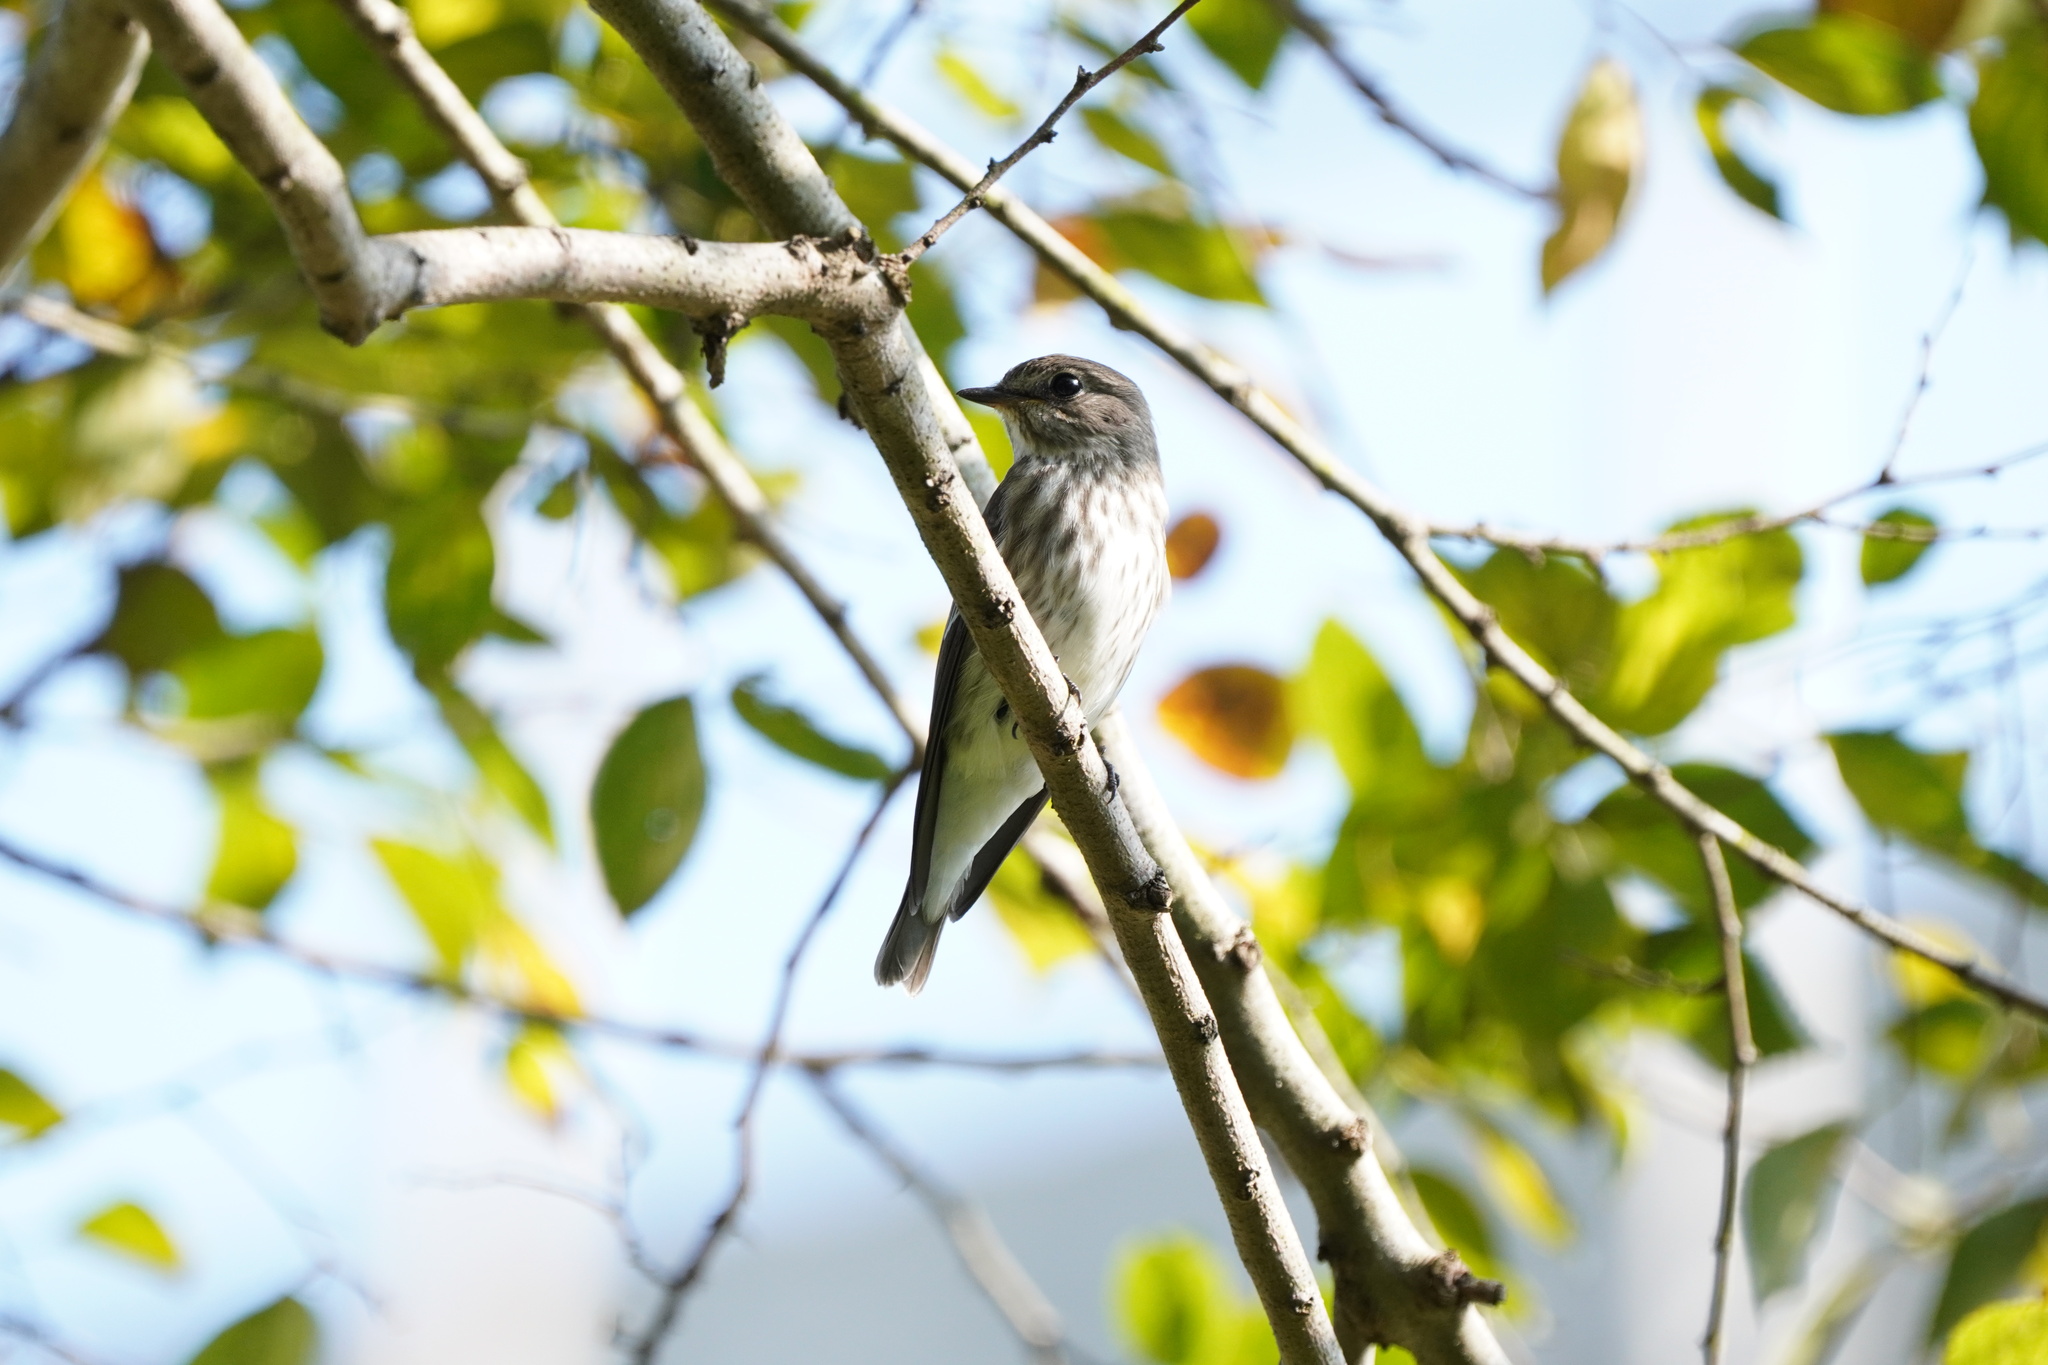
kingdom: Animalia
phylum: Chordata
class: Aves
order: Passeriformes
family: Muscicapidae
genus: Muscicapa
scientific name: Muscicapa griseisticta
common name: Gray-streaked flycatcher
